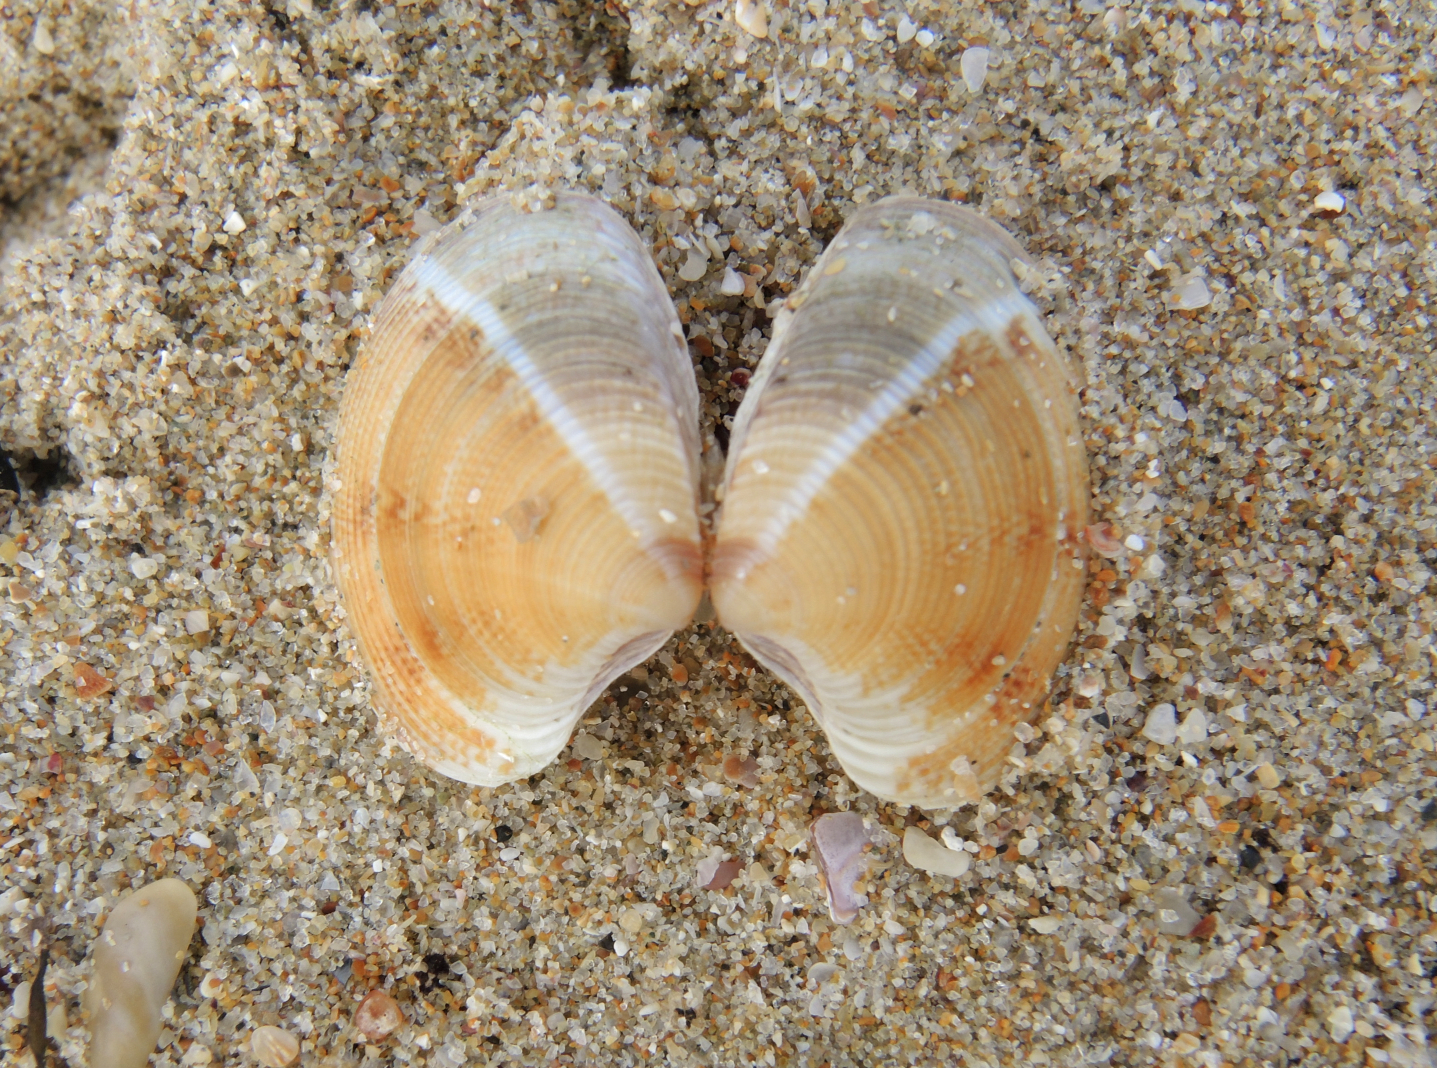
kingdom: Animalia
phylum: Mollusca
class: Bivalvia
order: Venerida
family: Veneridae
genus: Chamelea
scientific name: Chamelea gallina
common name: Chicken venus
